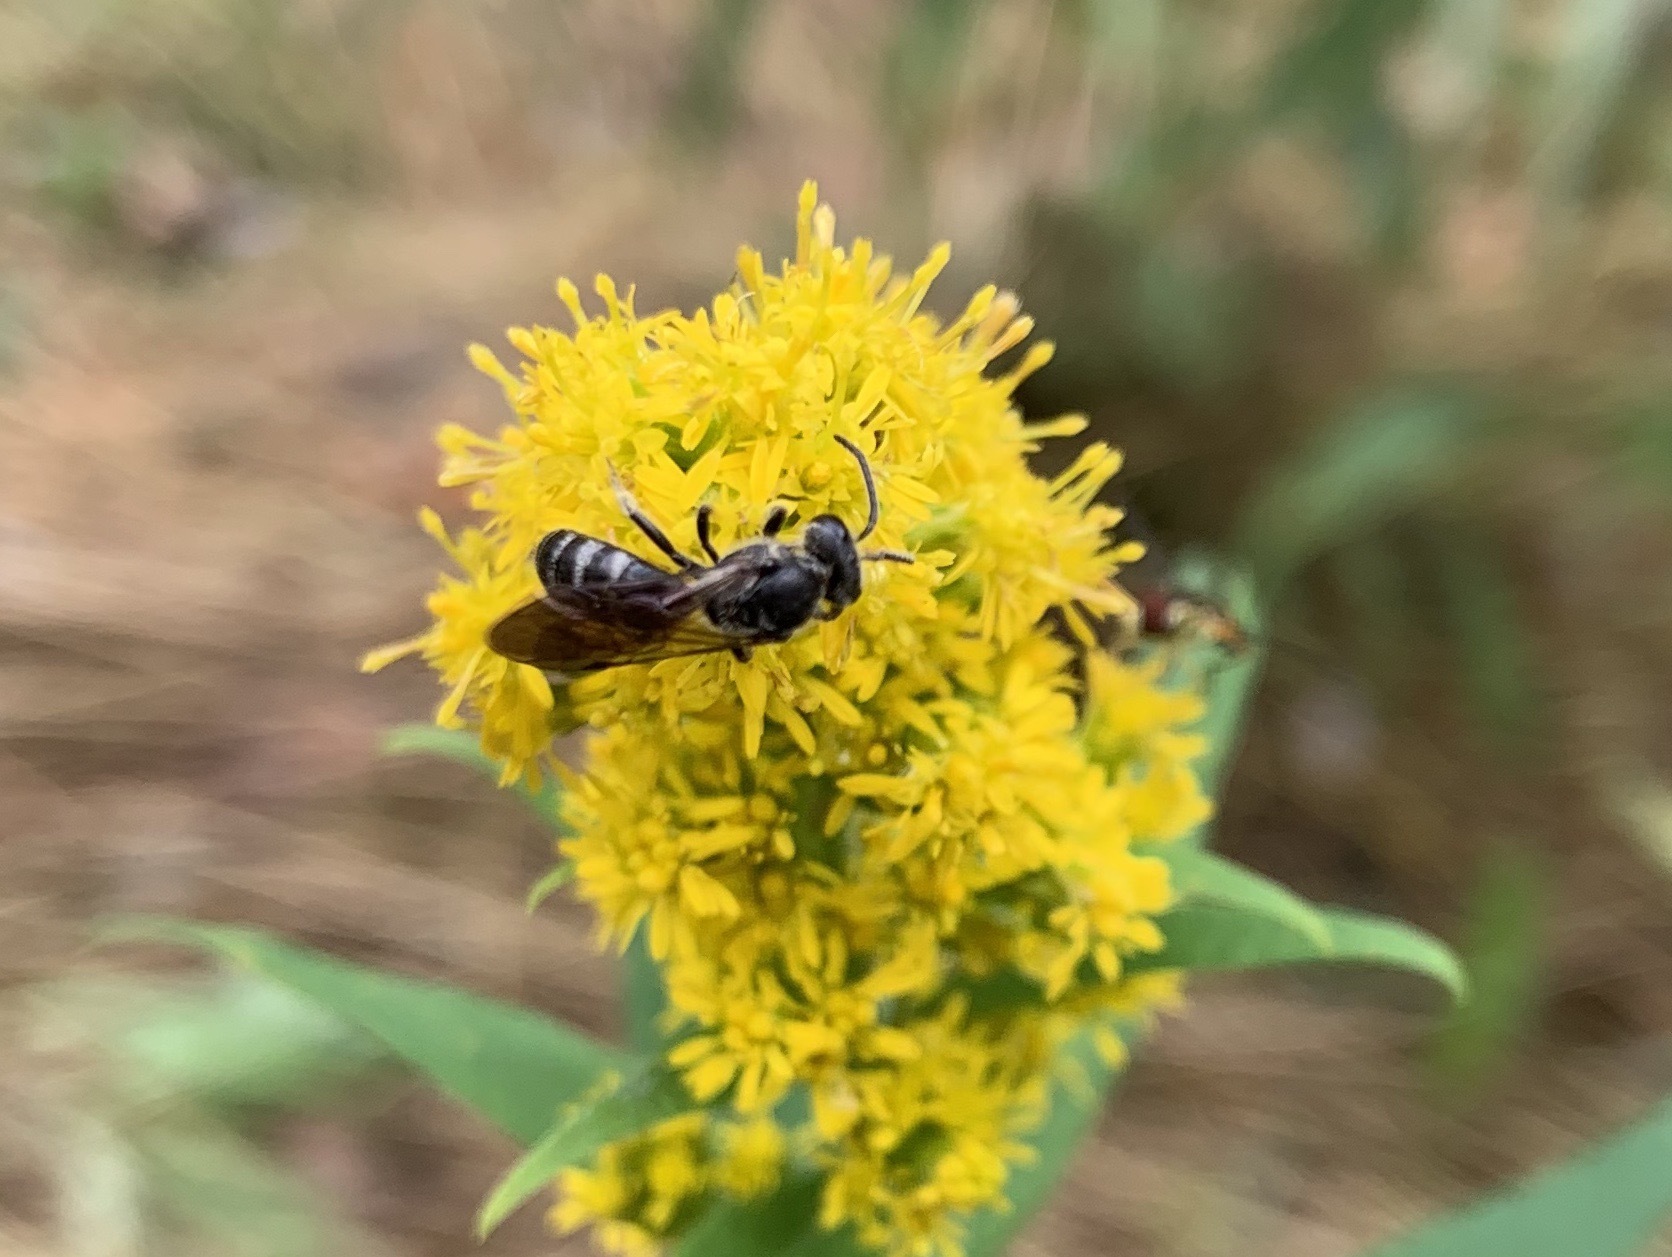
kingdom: Animalia
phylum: Arthropoda
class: Insecta
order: Hymenoptera
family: Halictidae
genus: Lasioglossum
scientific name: Lasioglossum fuscipenne
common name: Brown-winged sweat bee
